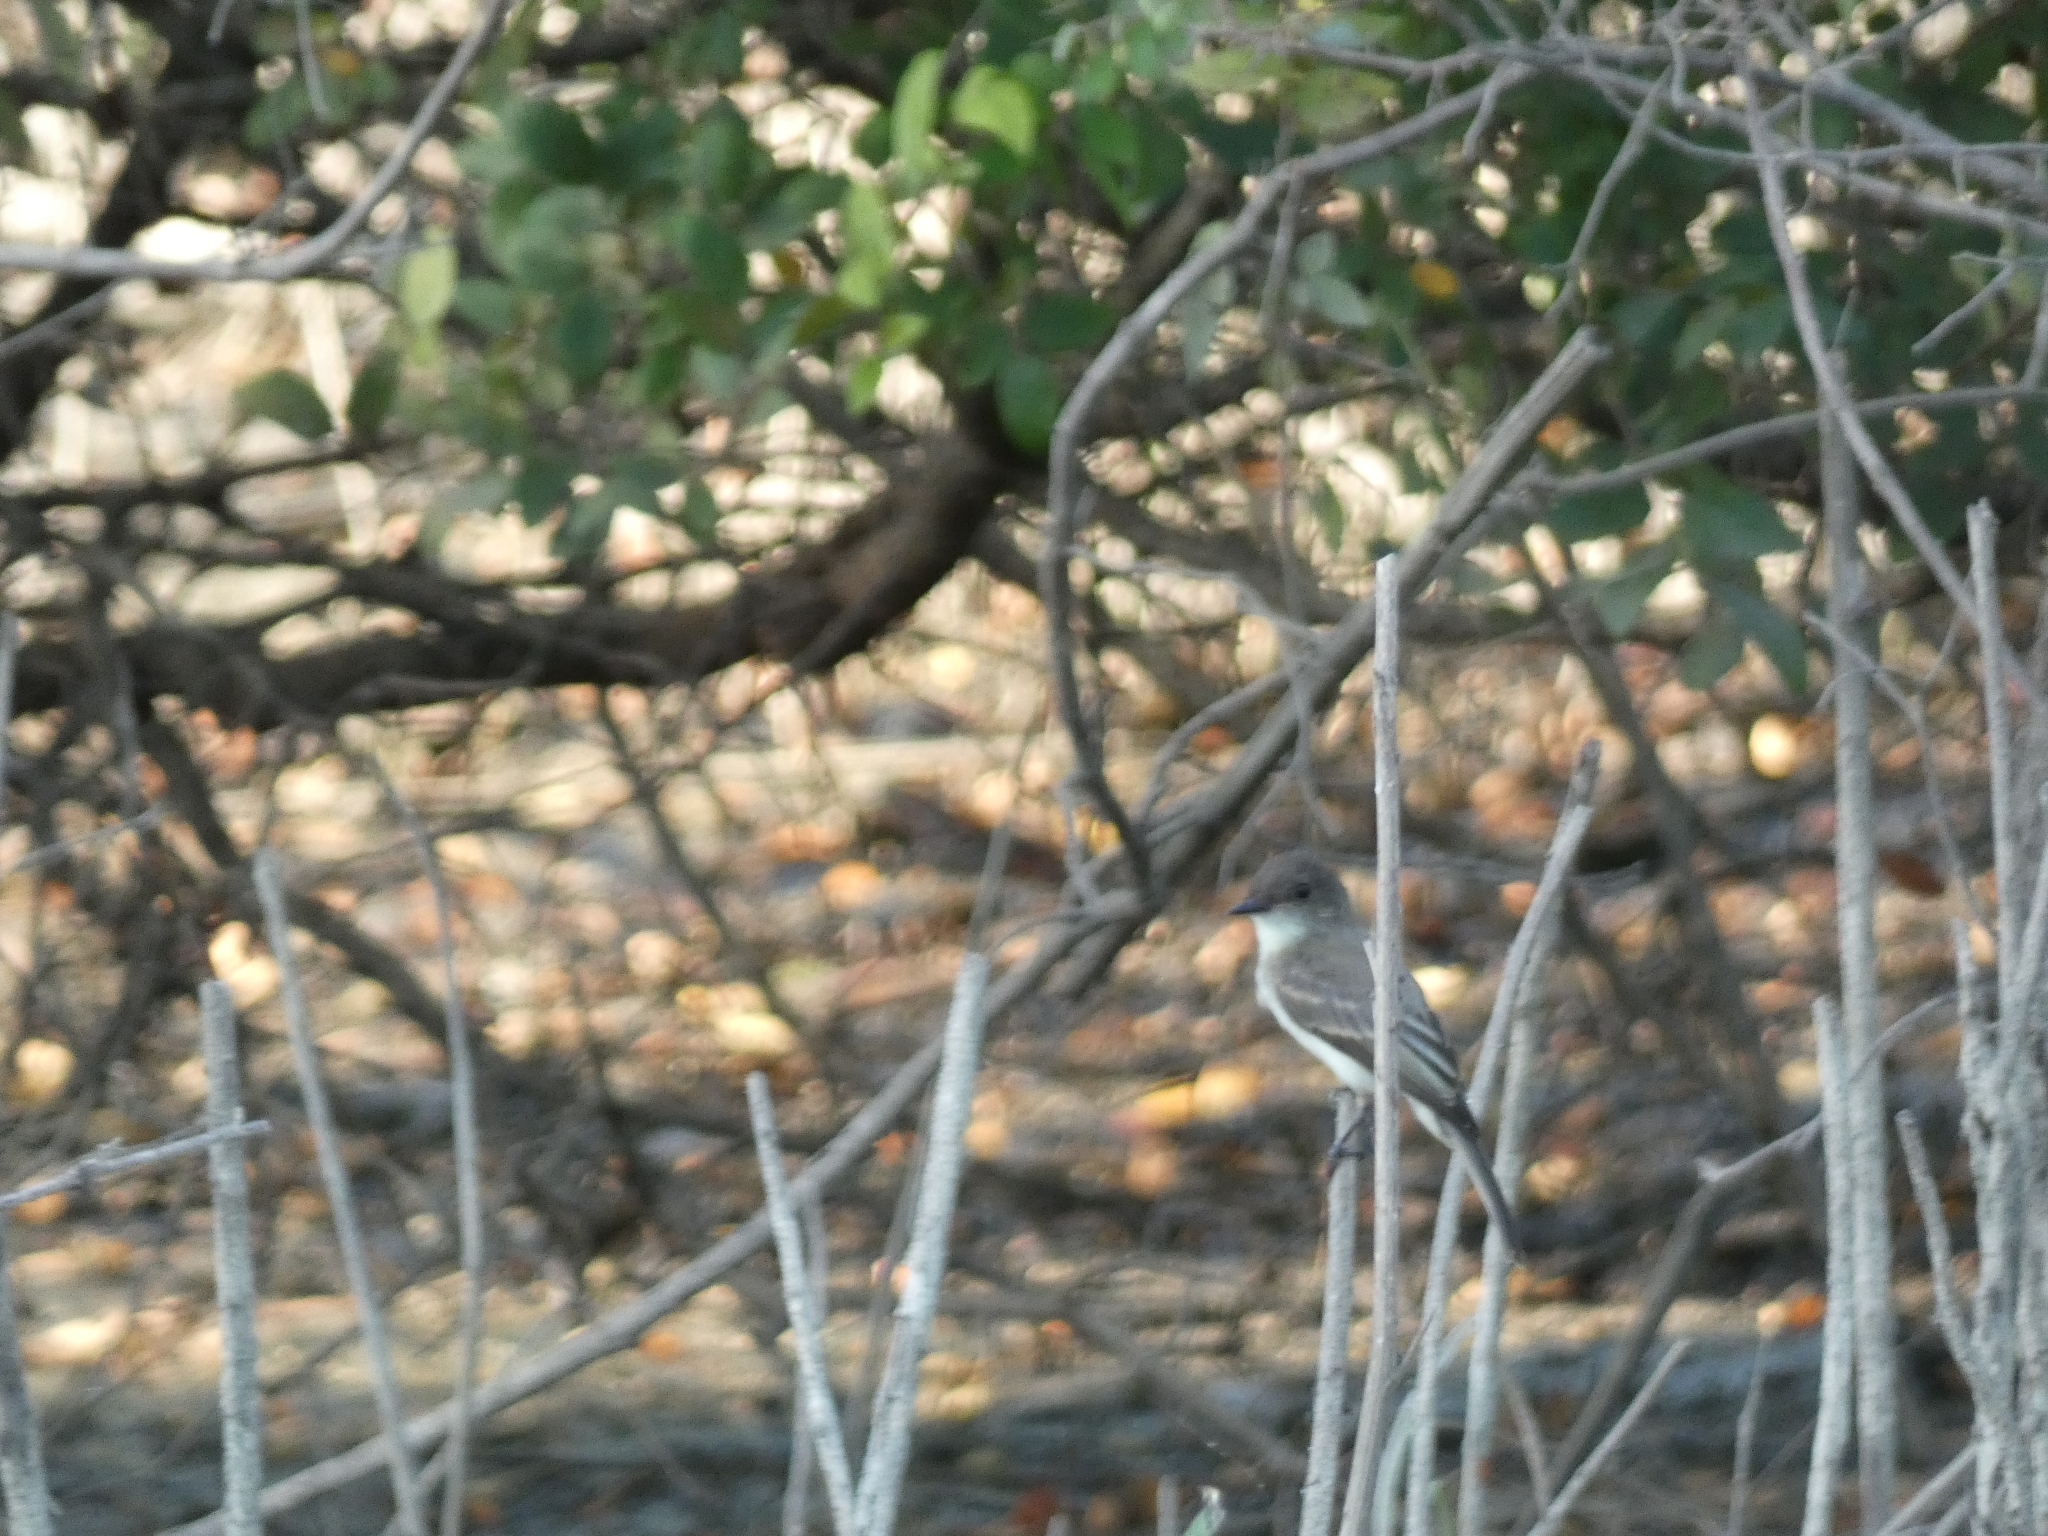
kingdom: Animalia
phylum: Chordata
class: Aves
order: Passeriformes
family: Tyrannidae
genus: Sayornis
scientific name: Sayornis phoebe
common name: Eastern phoebe
